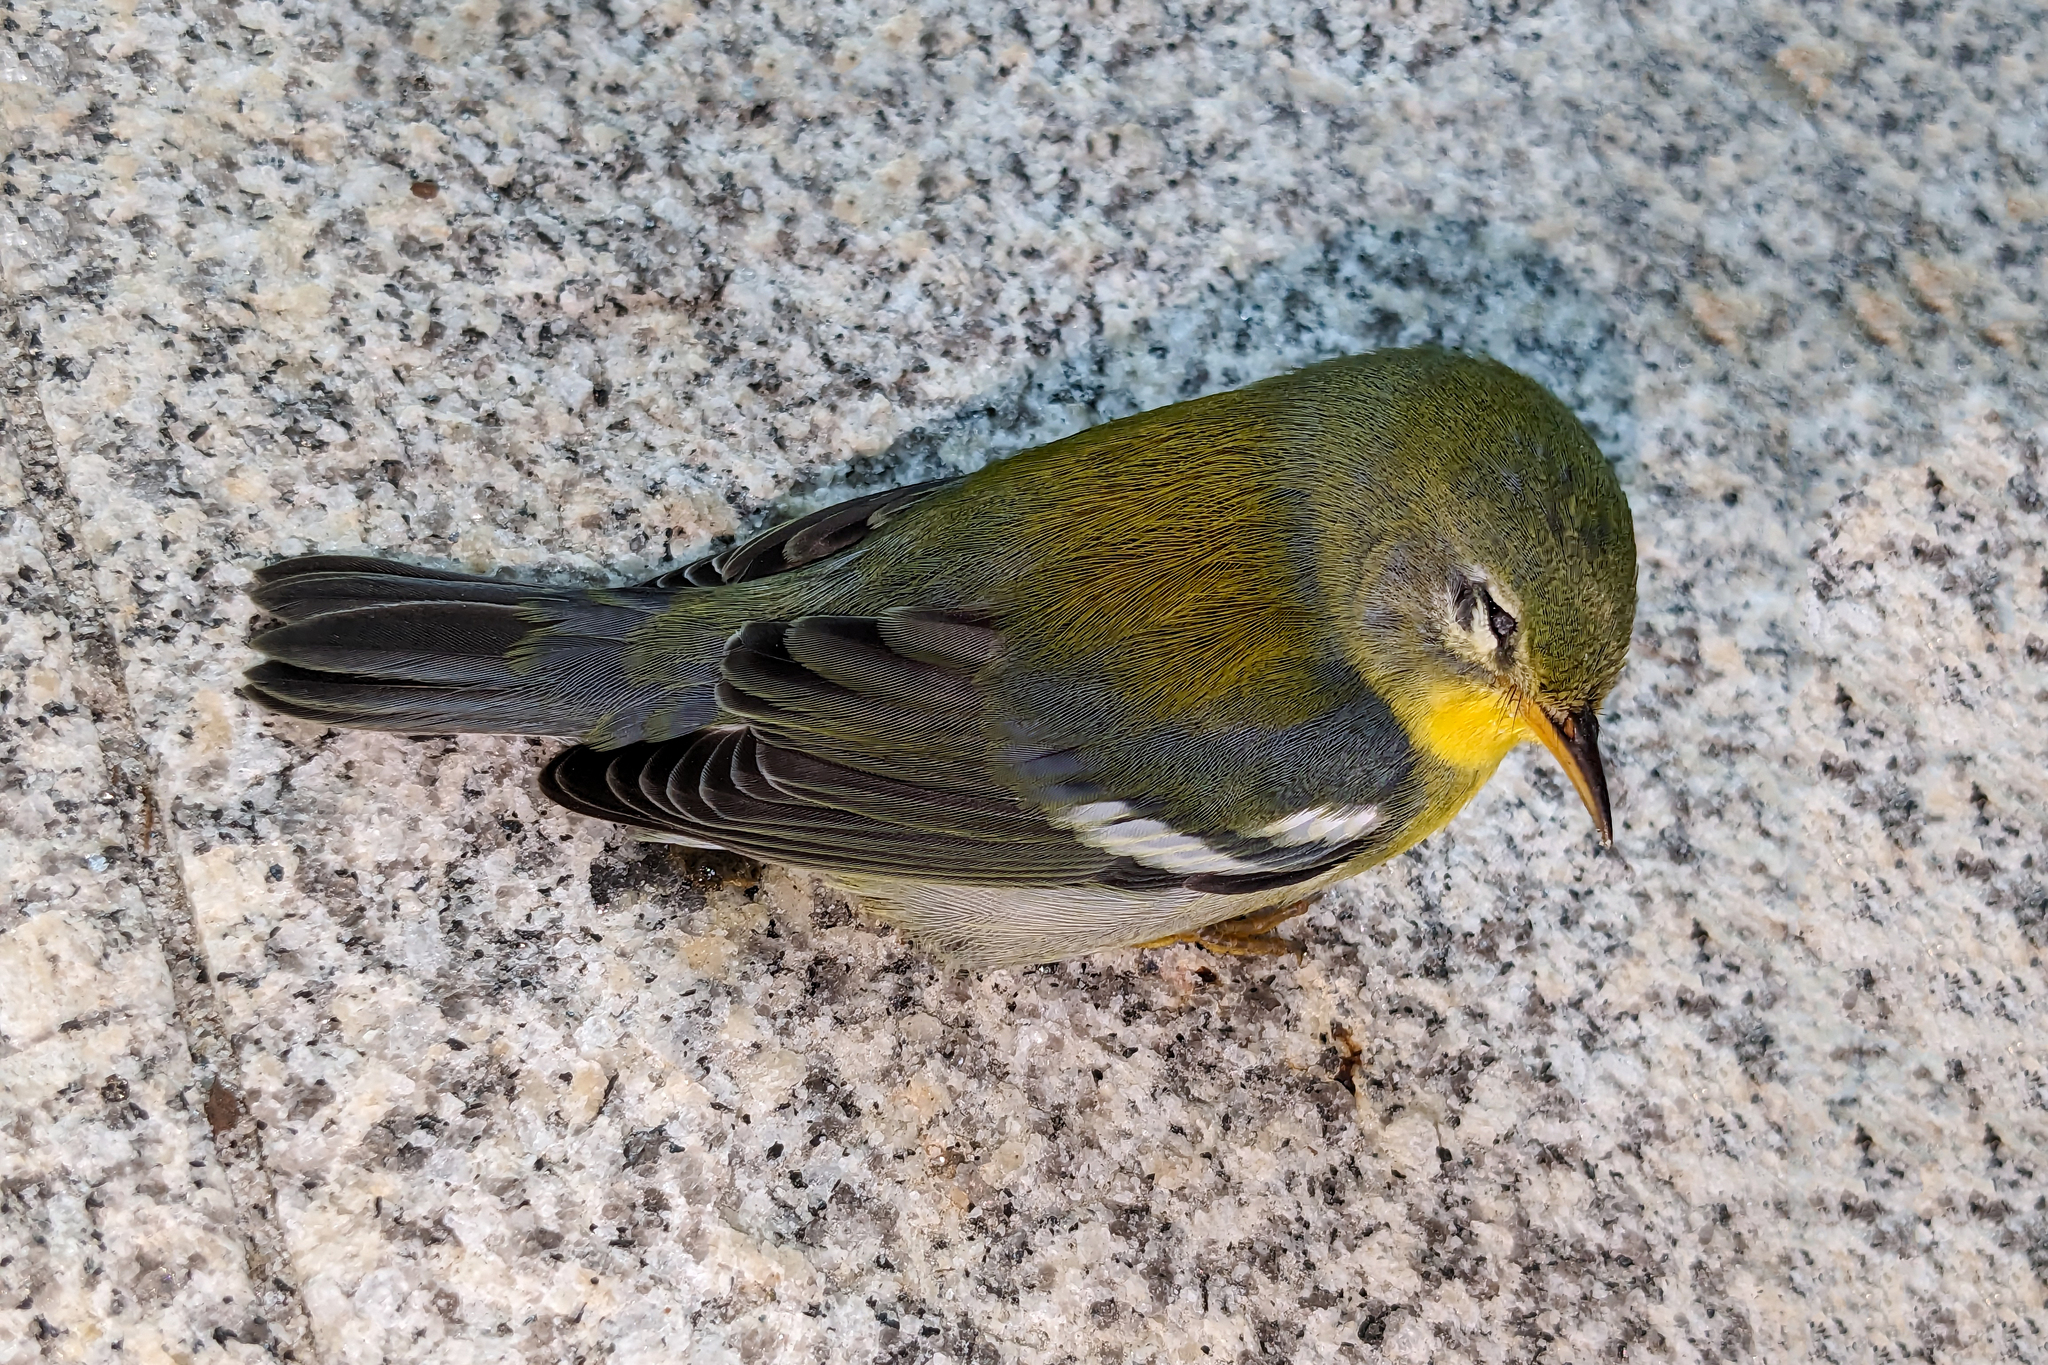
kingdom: Animalia
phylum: Chordata
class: Aves
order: Passeriformes
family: Parulidae
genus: Setophaga
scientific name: Setophaga americana
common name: Northern parula
